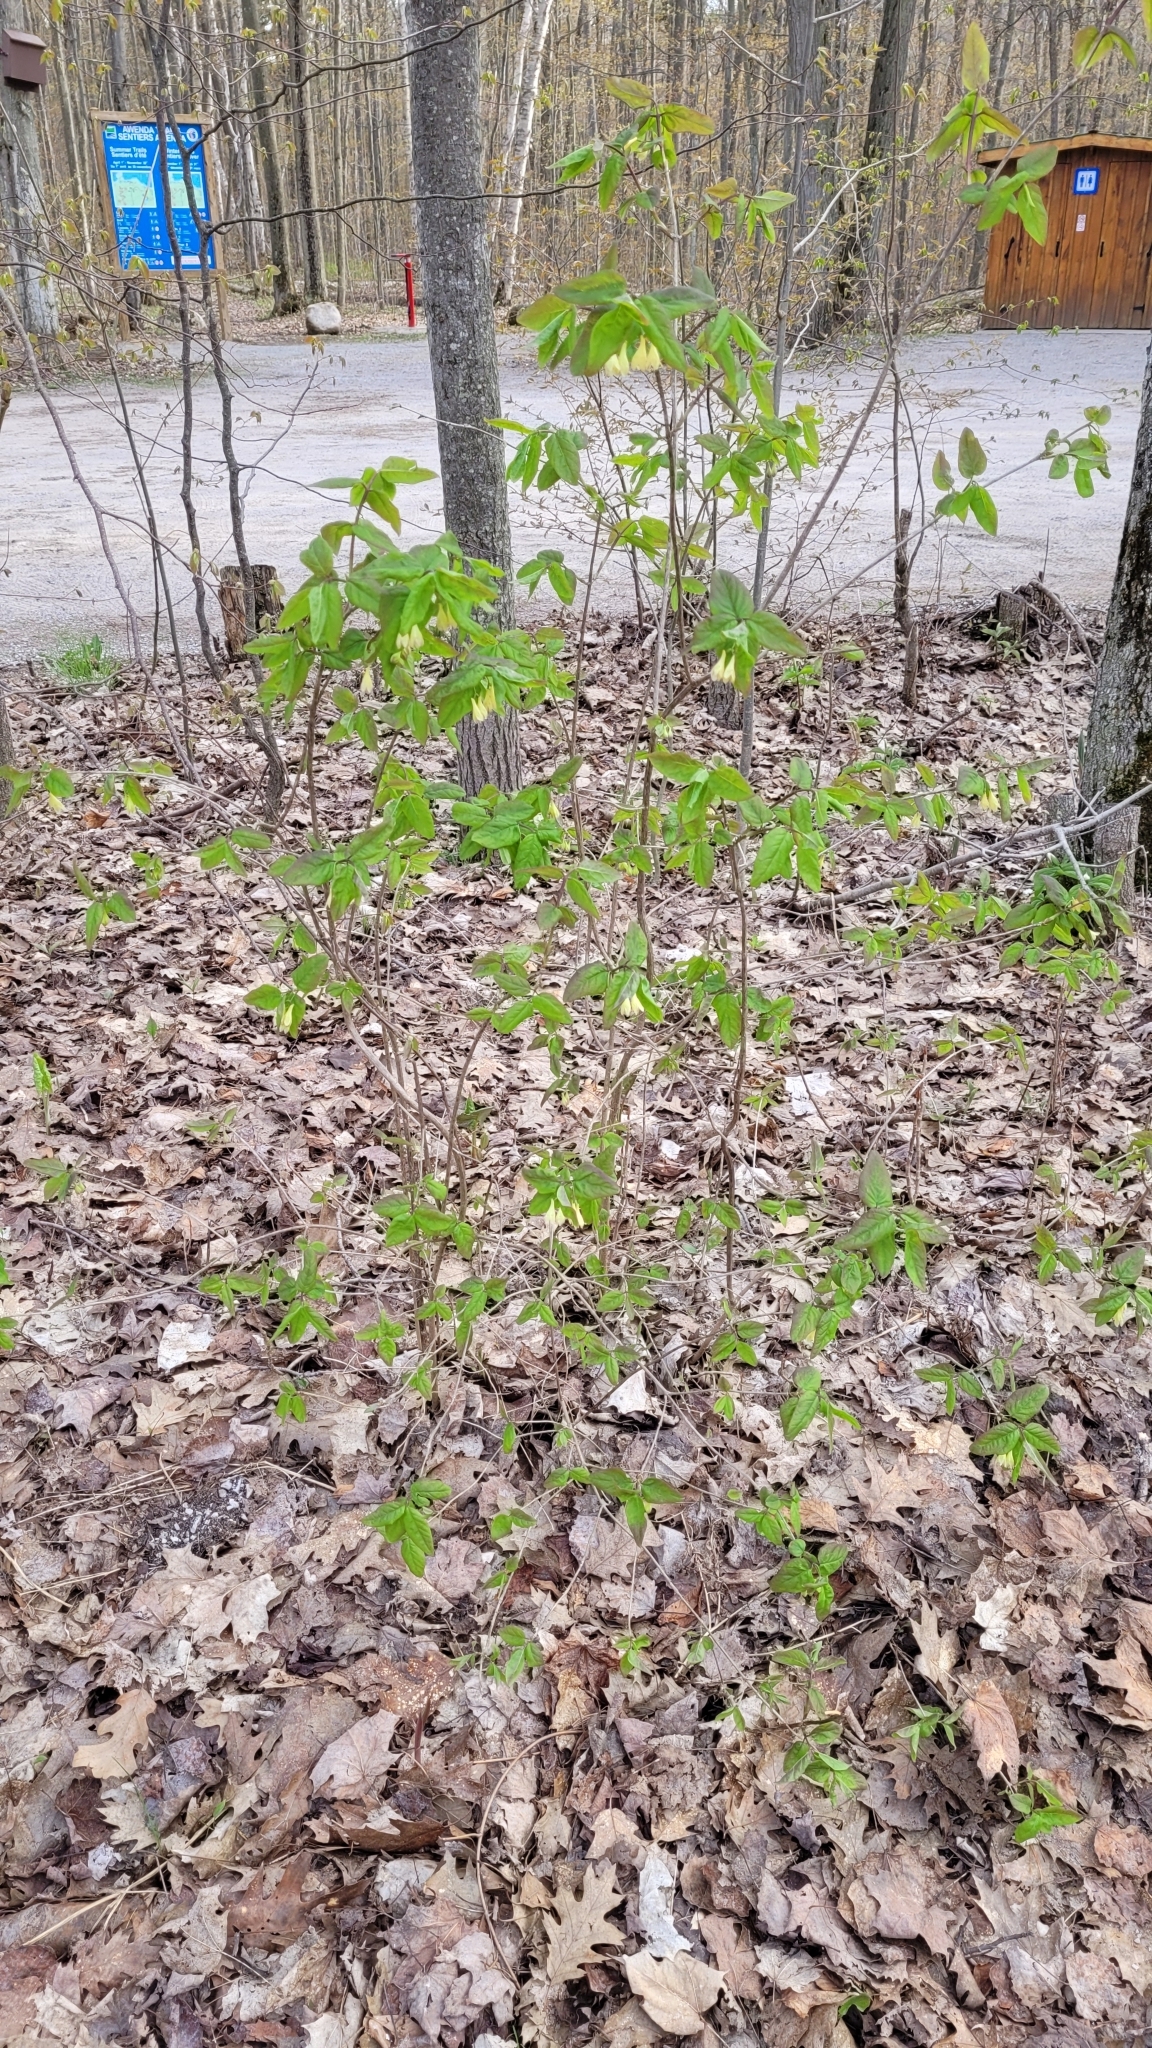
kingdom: Plantae
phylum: Tracheophyta
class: Magnoliopsida
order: Dipsacales
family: Caprifoliaceae
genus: Lonicera
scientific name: Lonicera canadensis
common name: American fly-honeysuckle
